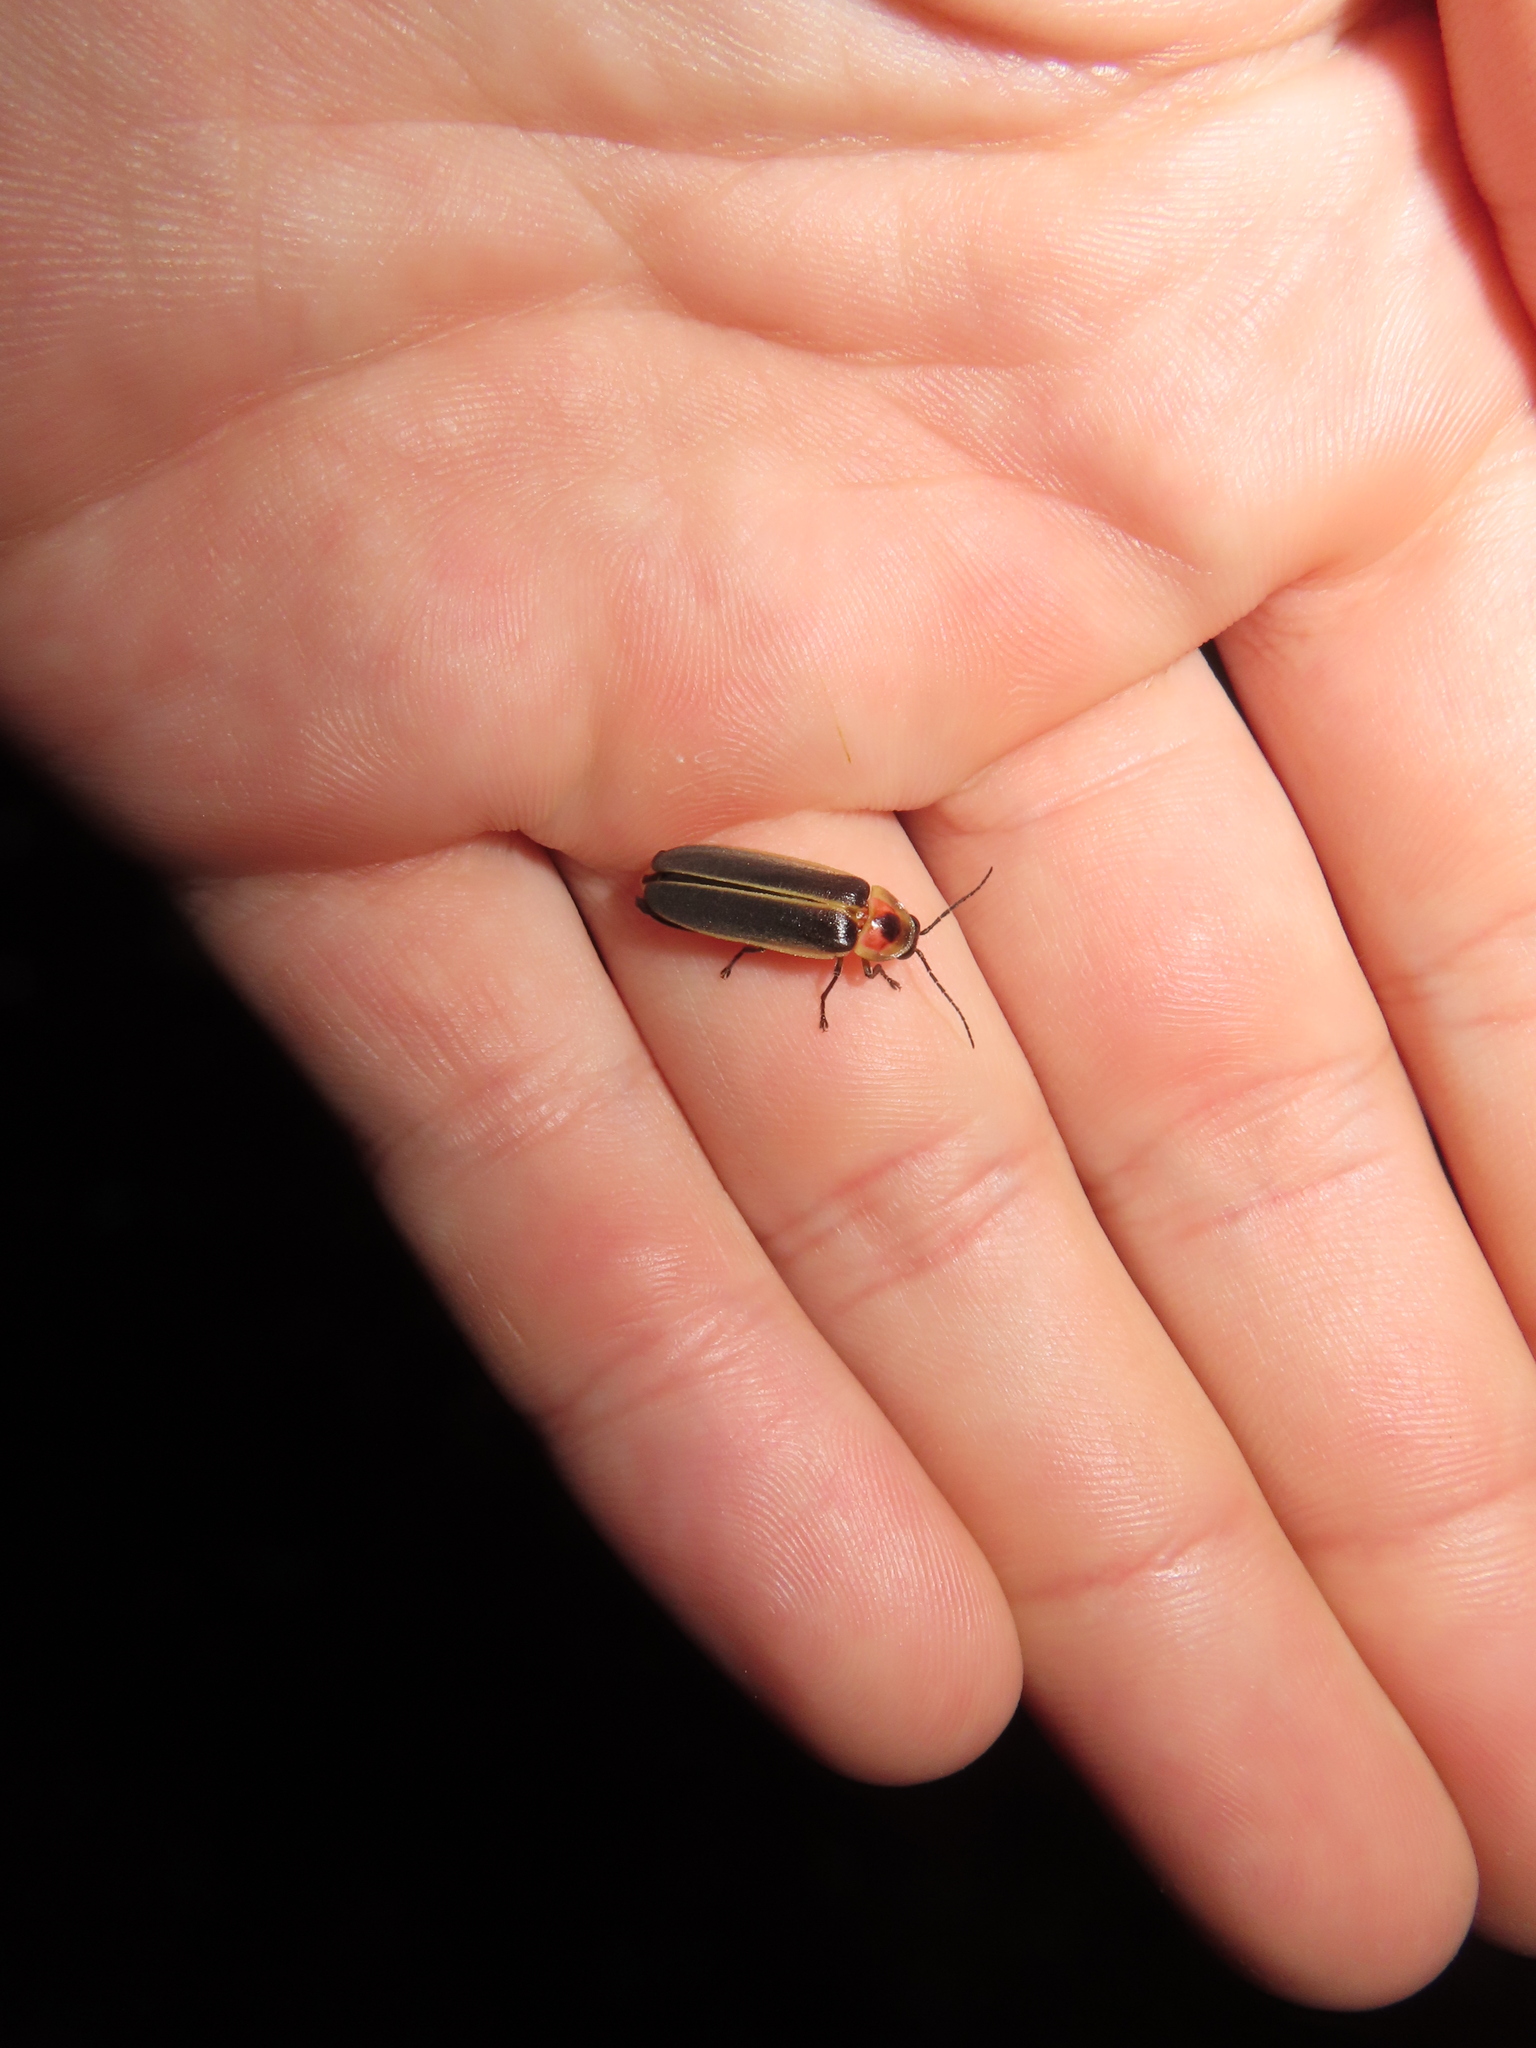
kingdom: Animalia
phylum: Arthropoda
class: Insecta
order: Coleoptera
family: Lampyridae
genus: Photinus
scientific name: Photinus pyralis
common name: Big dipper firefly
